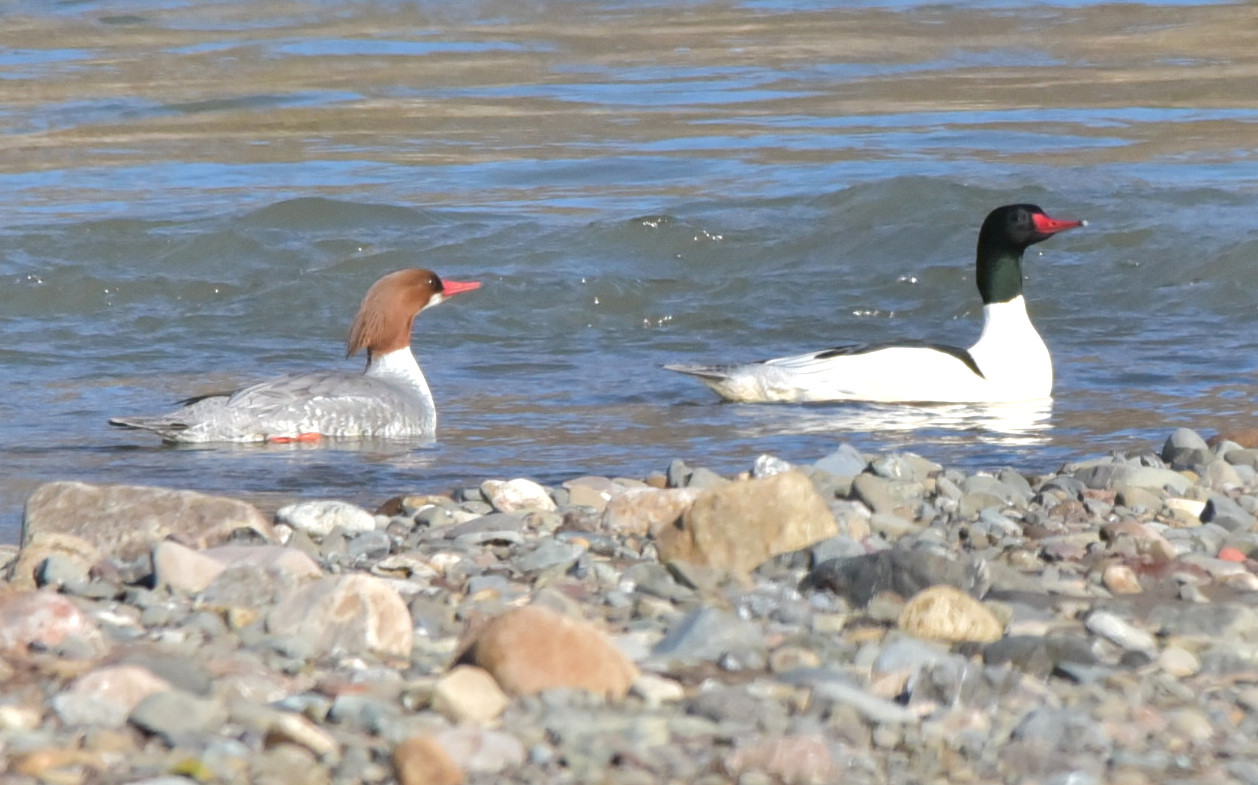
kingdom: Animalia
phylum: Chordata
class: Aves
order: Anseriformes
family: Anatidae
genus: Mergus
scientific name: Mergus merganser
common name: Common merganser
